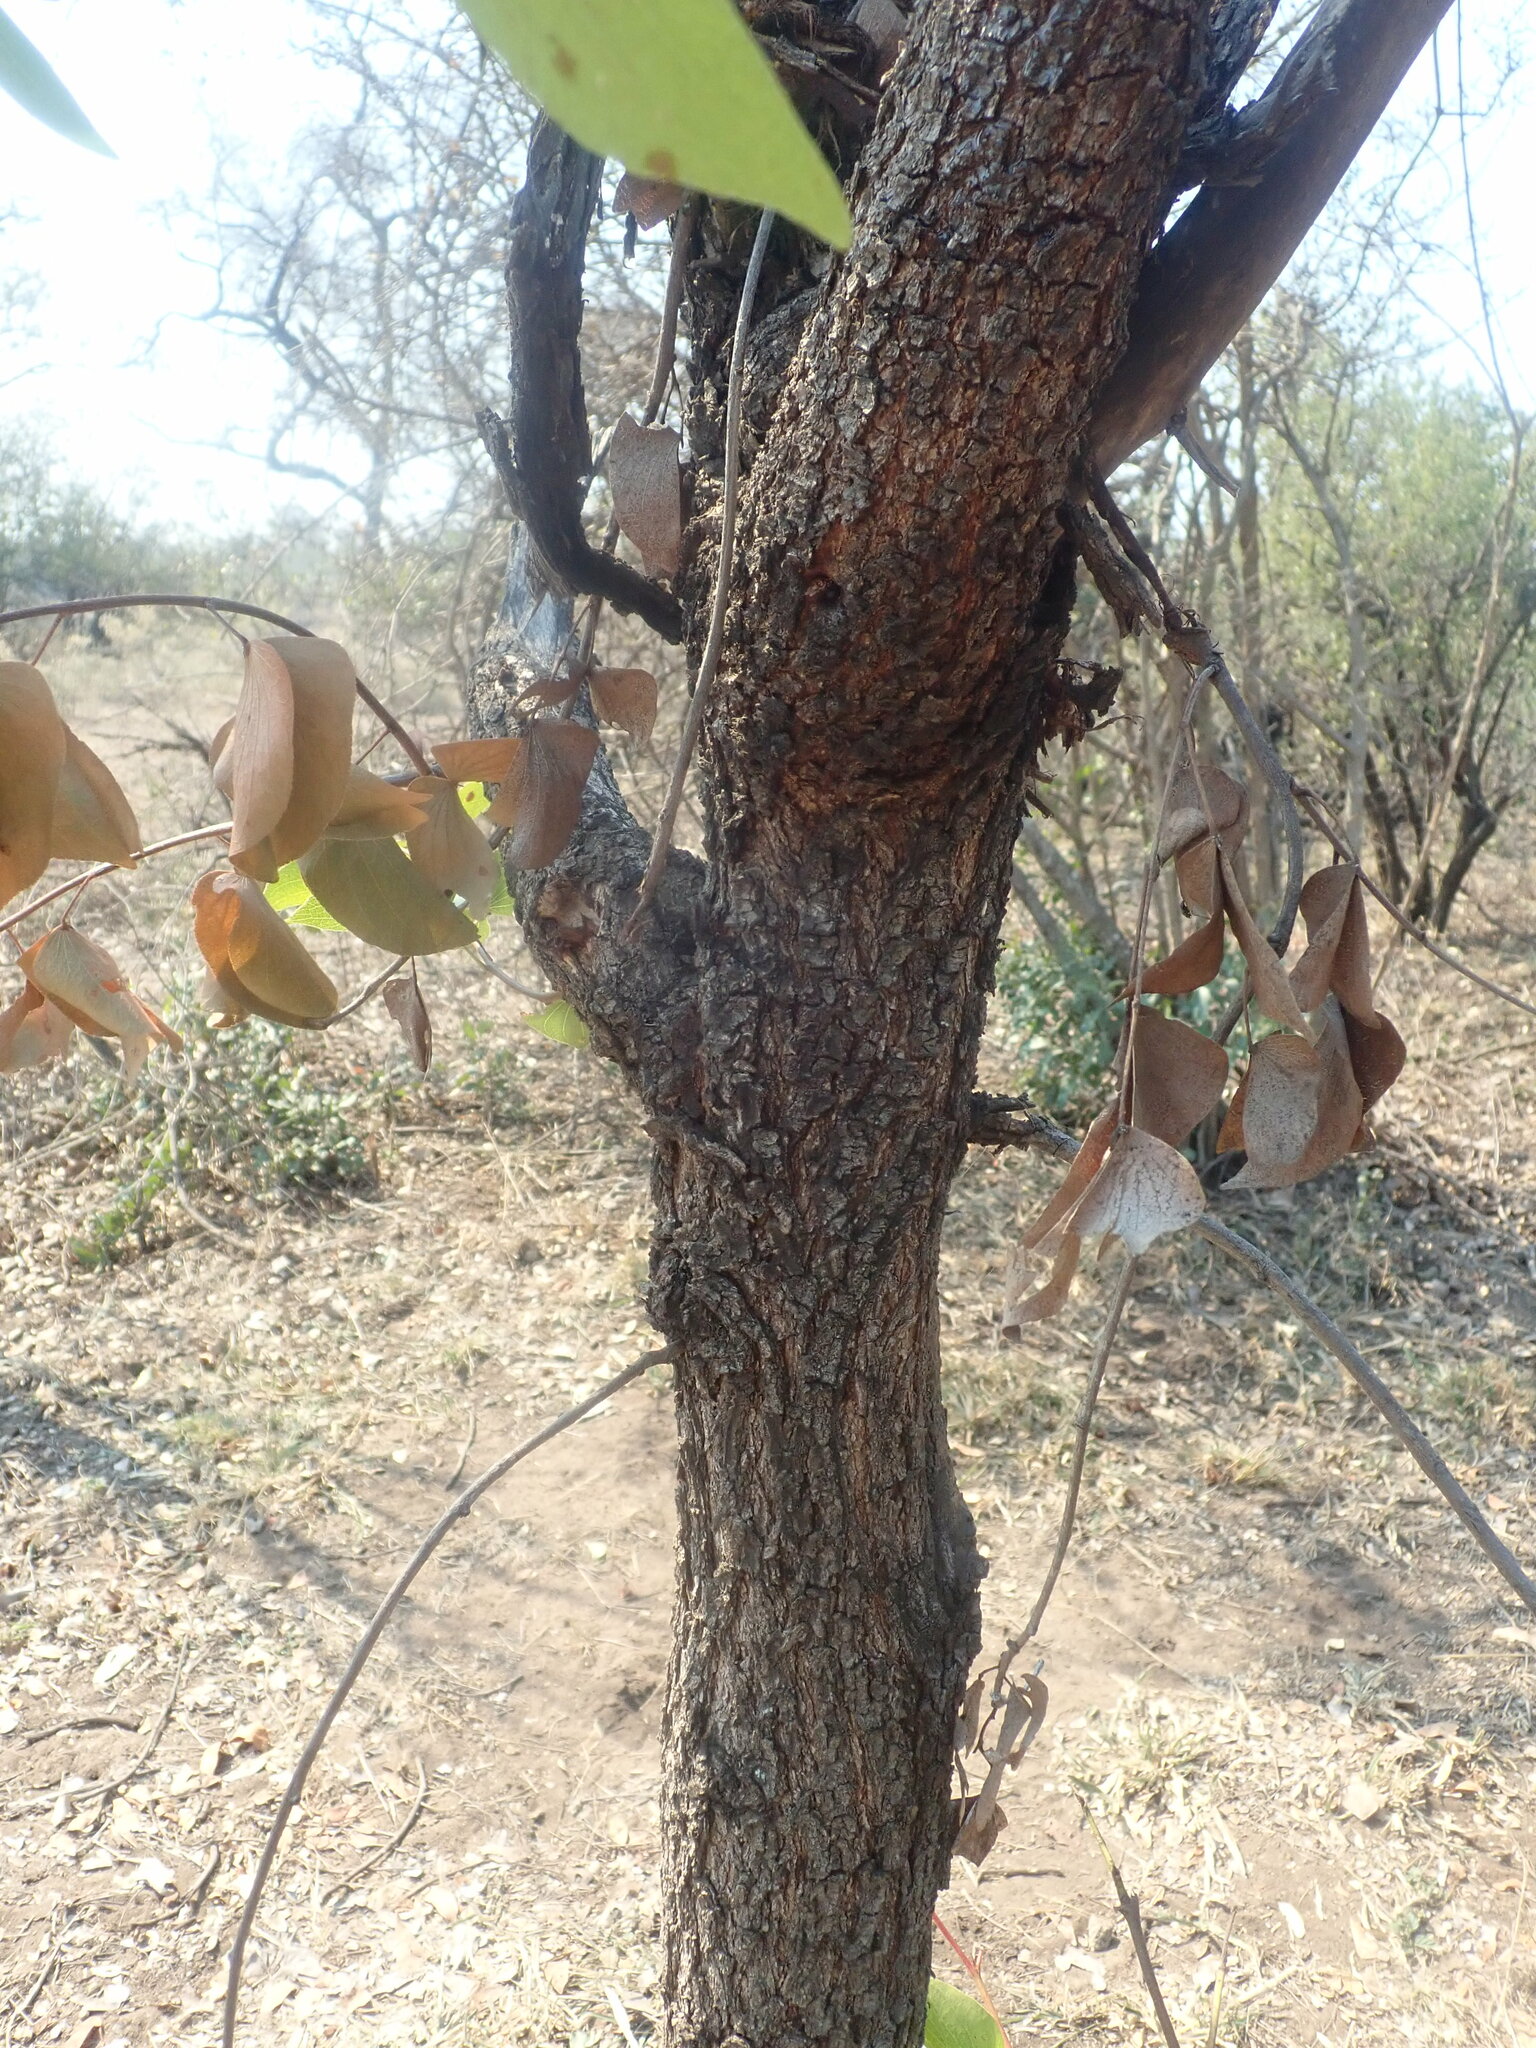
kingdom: Plantae
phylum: Tracheophyta
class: Magnoliopsida
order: Fabales
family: Fabaceae
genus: Colophospermum
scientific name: Colophospermum mopane
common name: Mopane
